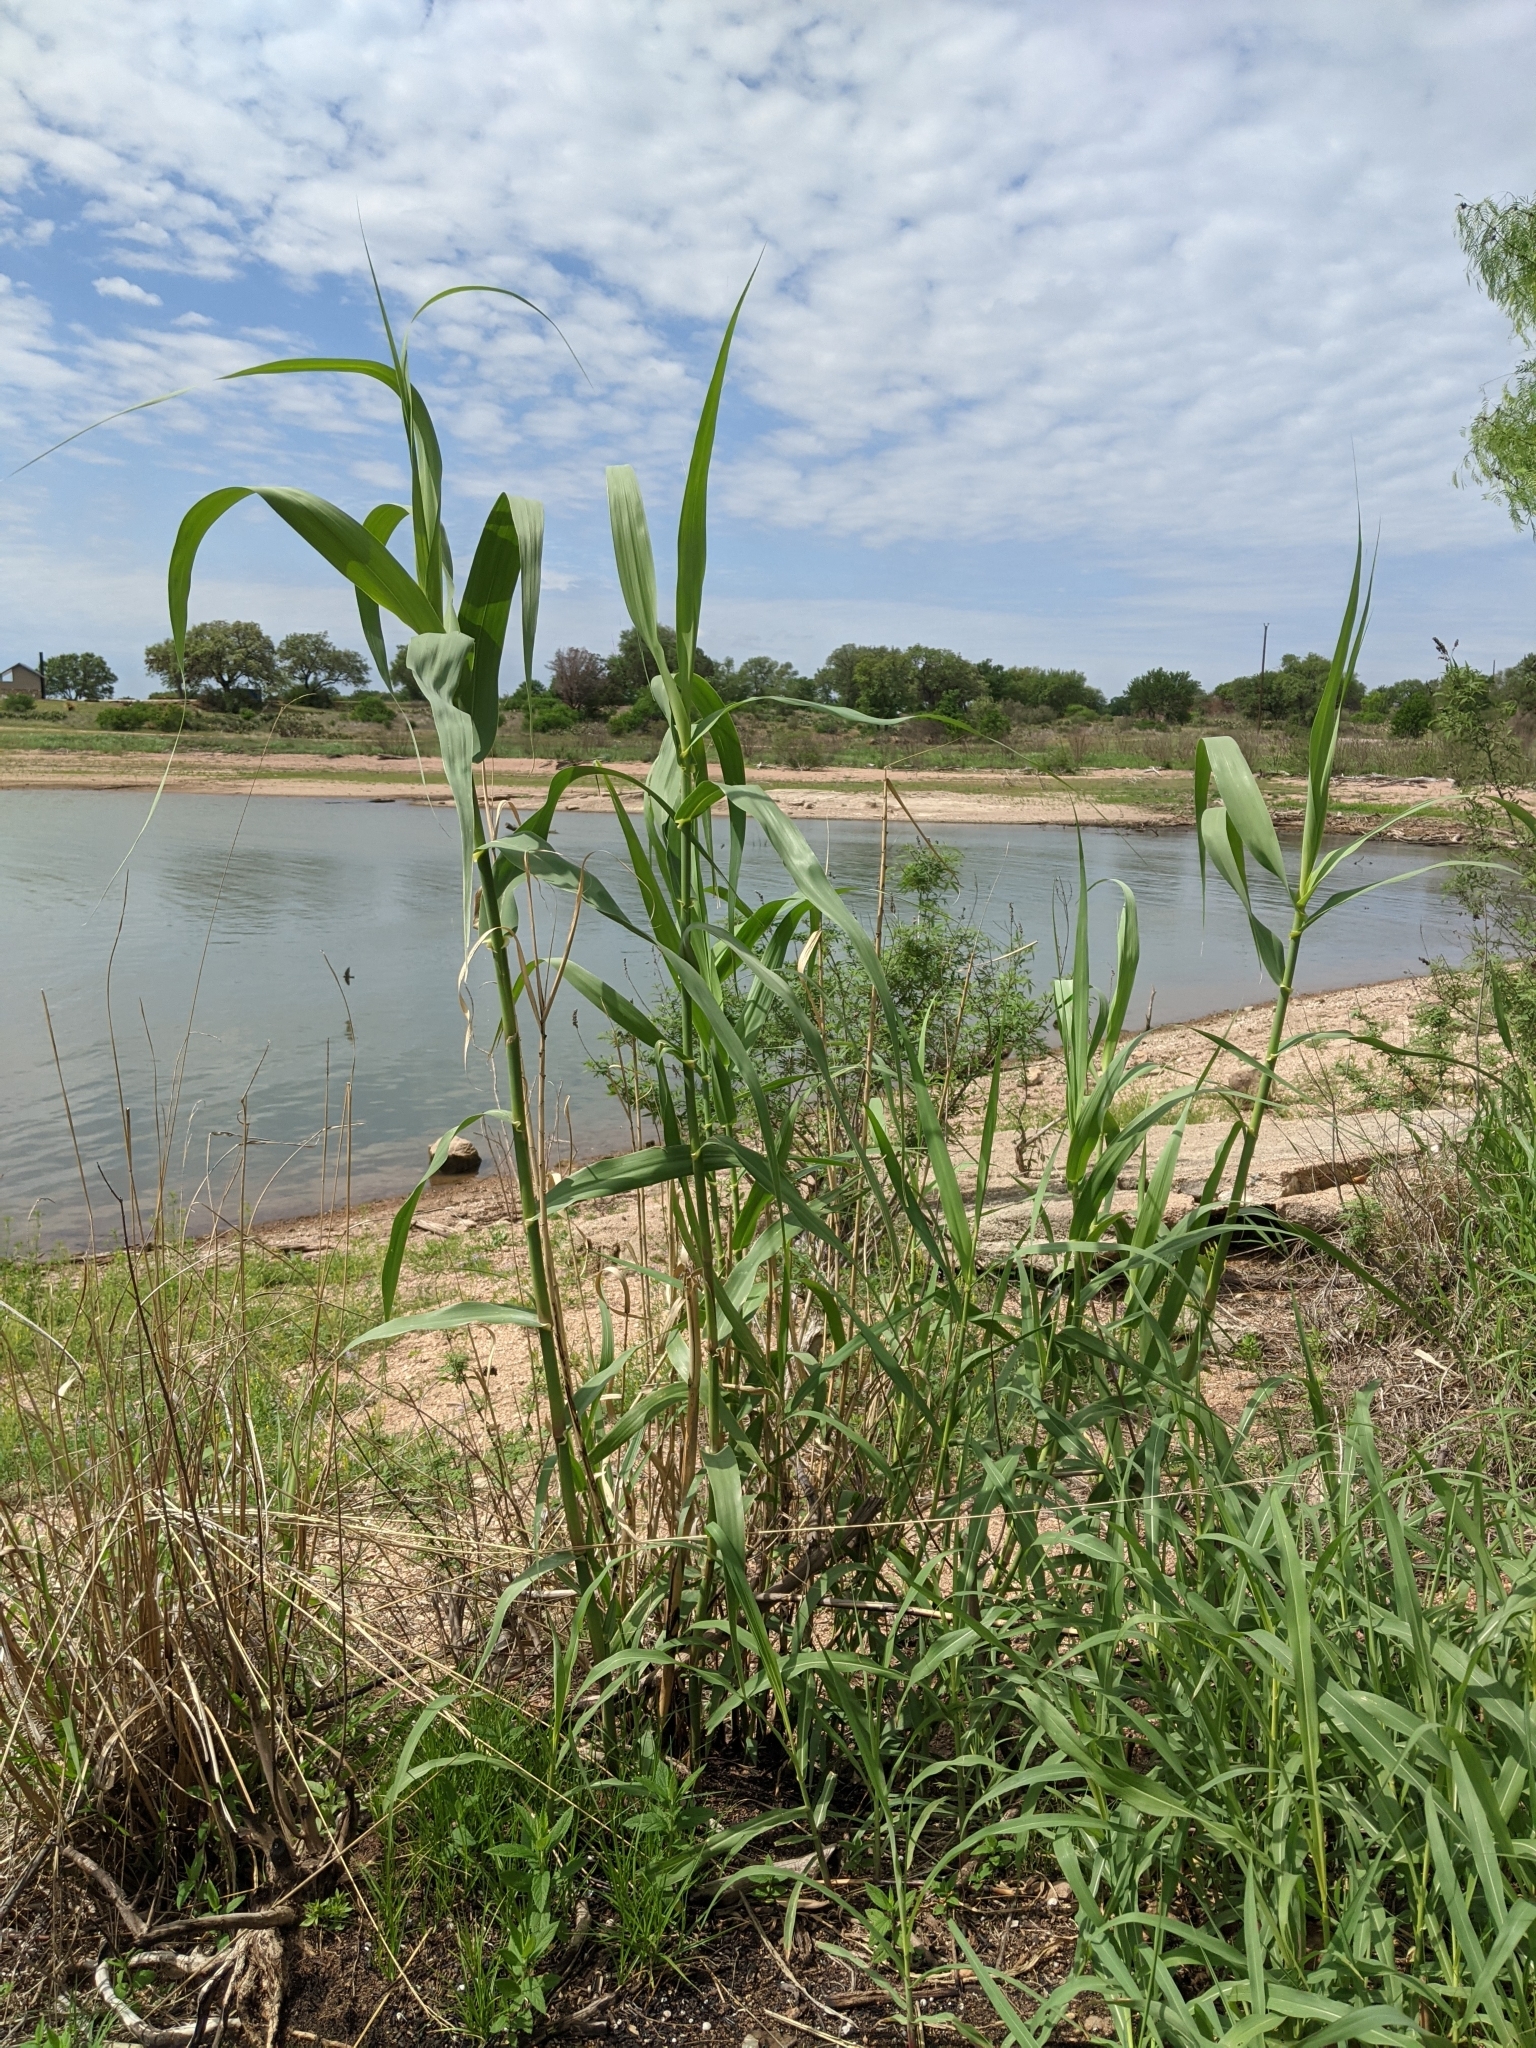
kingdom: Plantae
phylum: Tracheophyta
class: Liliopsida
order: Poales
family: Poaceae
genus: Arundo
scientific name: Arundo donax
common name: Giant reed
